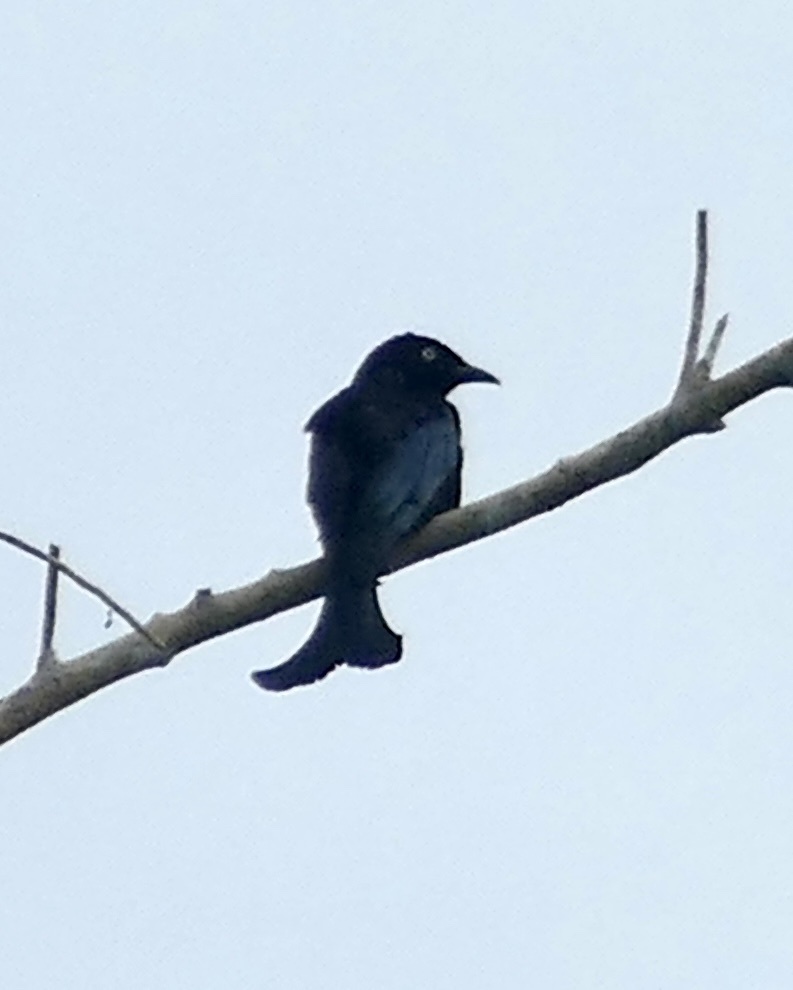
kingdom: Animalia
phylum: Chordata
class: Aves
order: Passeriformes
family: Dicruridae
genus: Dicrurus
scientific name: Dicrurus hottentottus
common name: Hair-crested drongo
